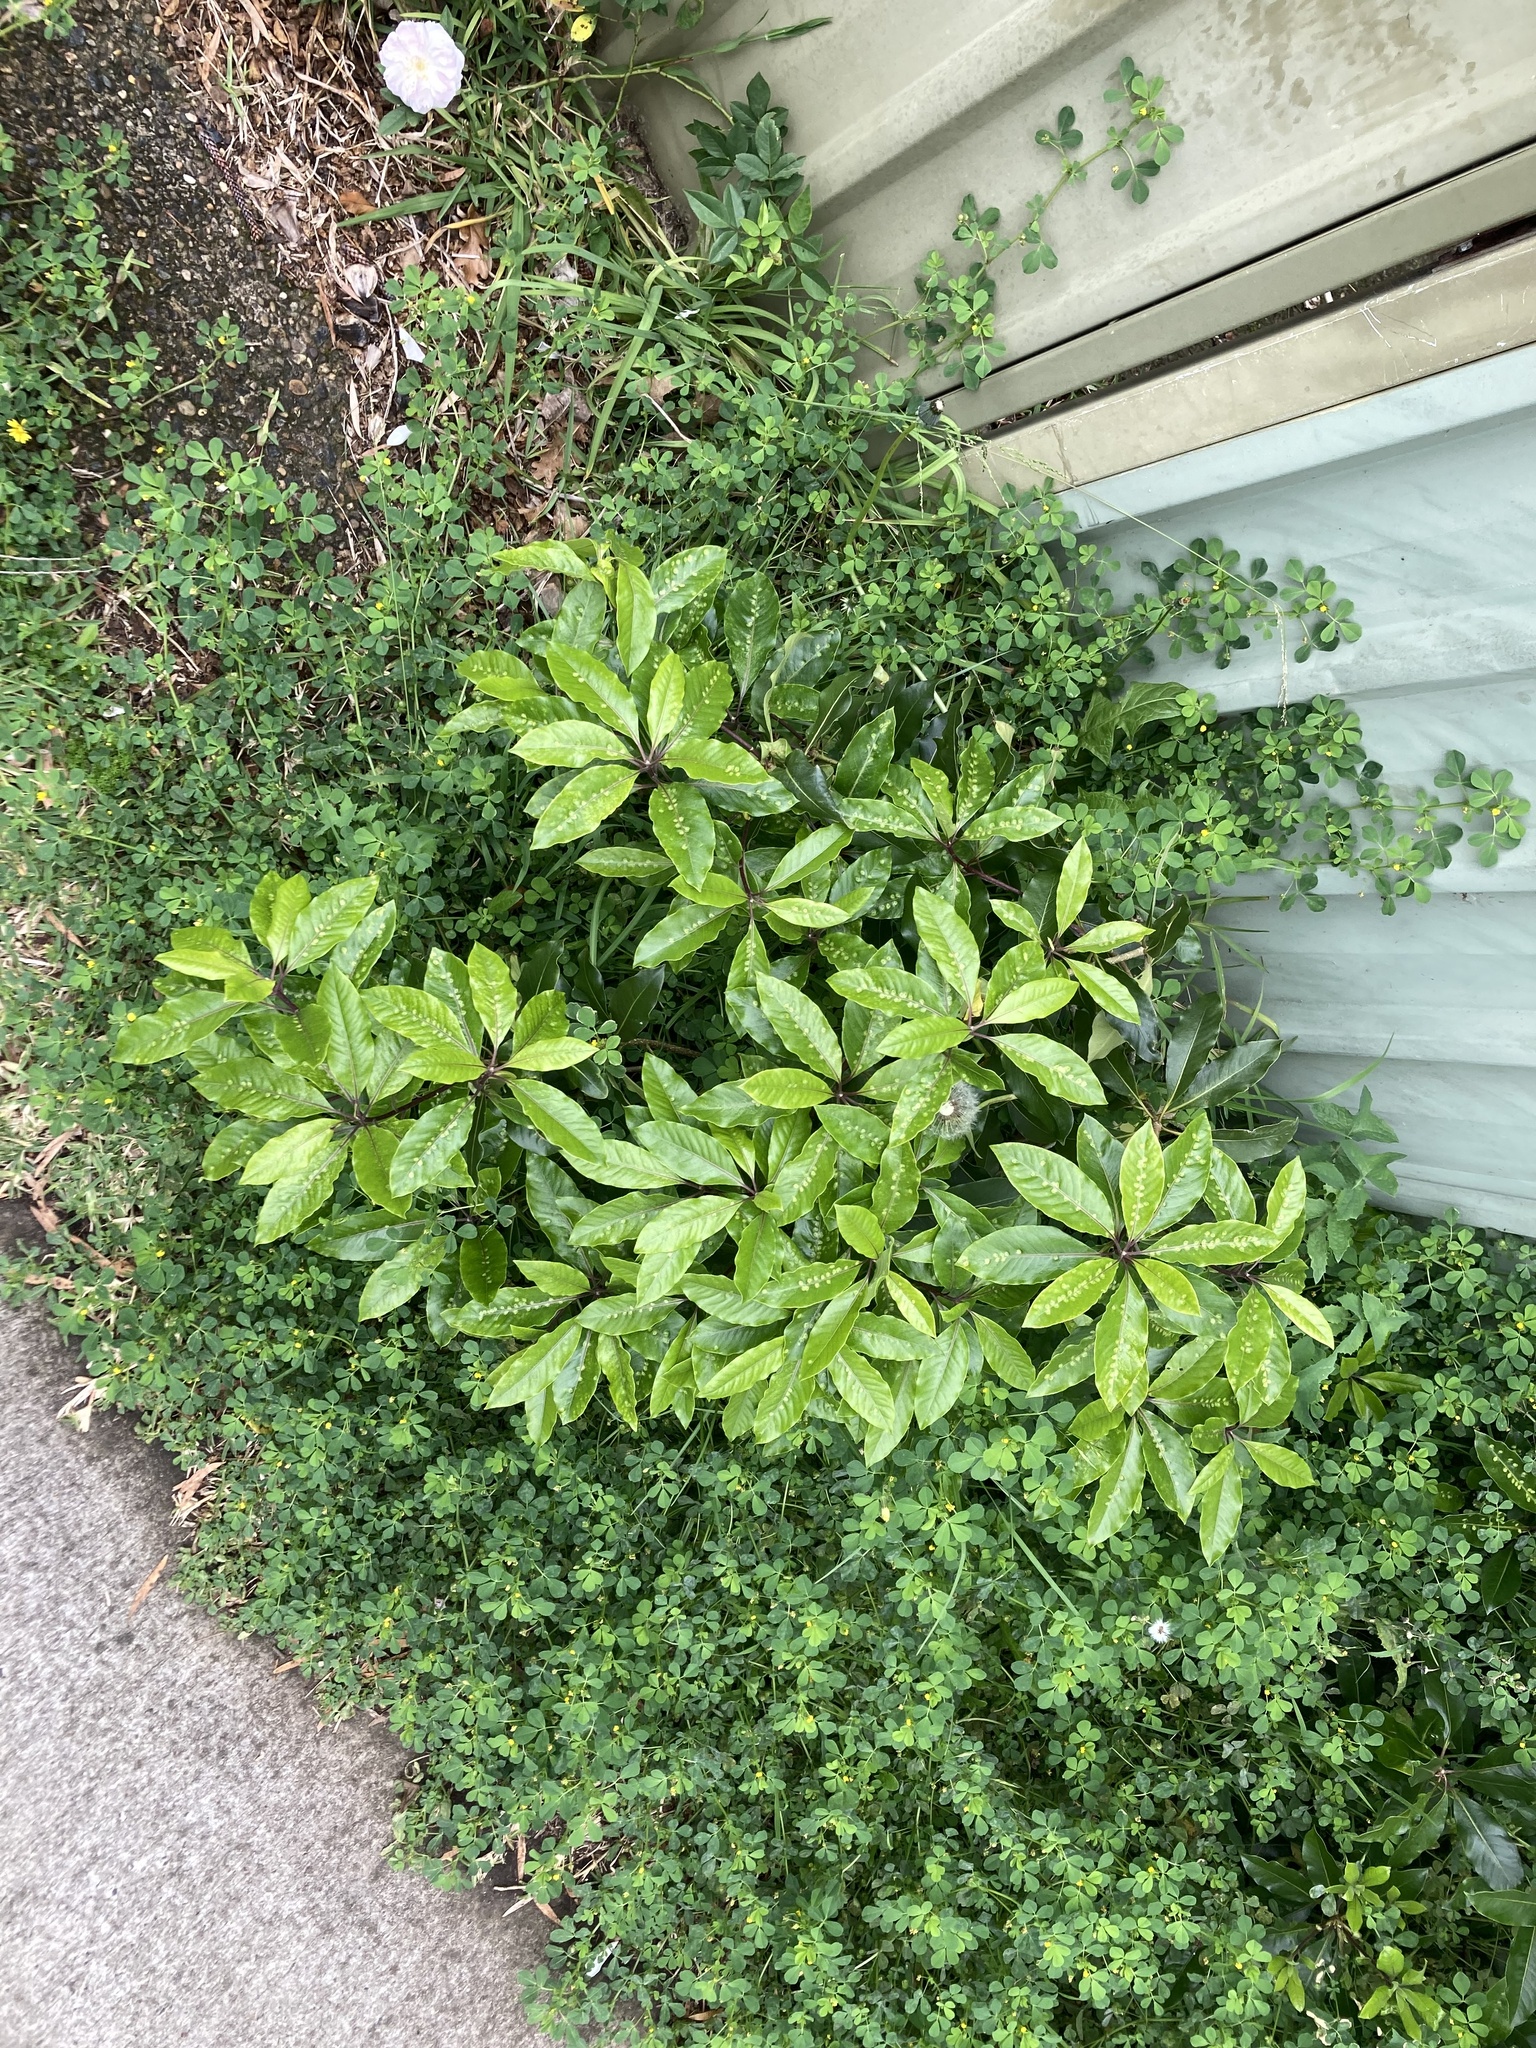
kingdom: Plantae
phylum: Tracheophyta
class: Magnoliopsida
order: Apiales
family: Pittosporaceae
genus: Pittosporum
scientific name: Pittosporum undulatum
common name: Australian cheesewood
